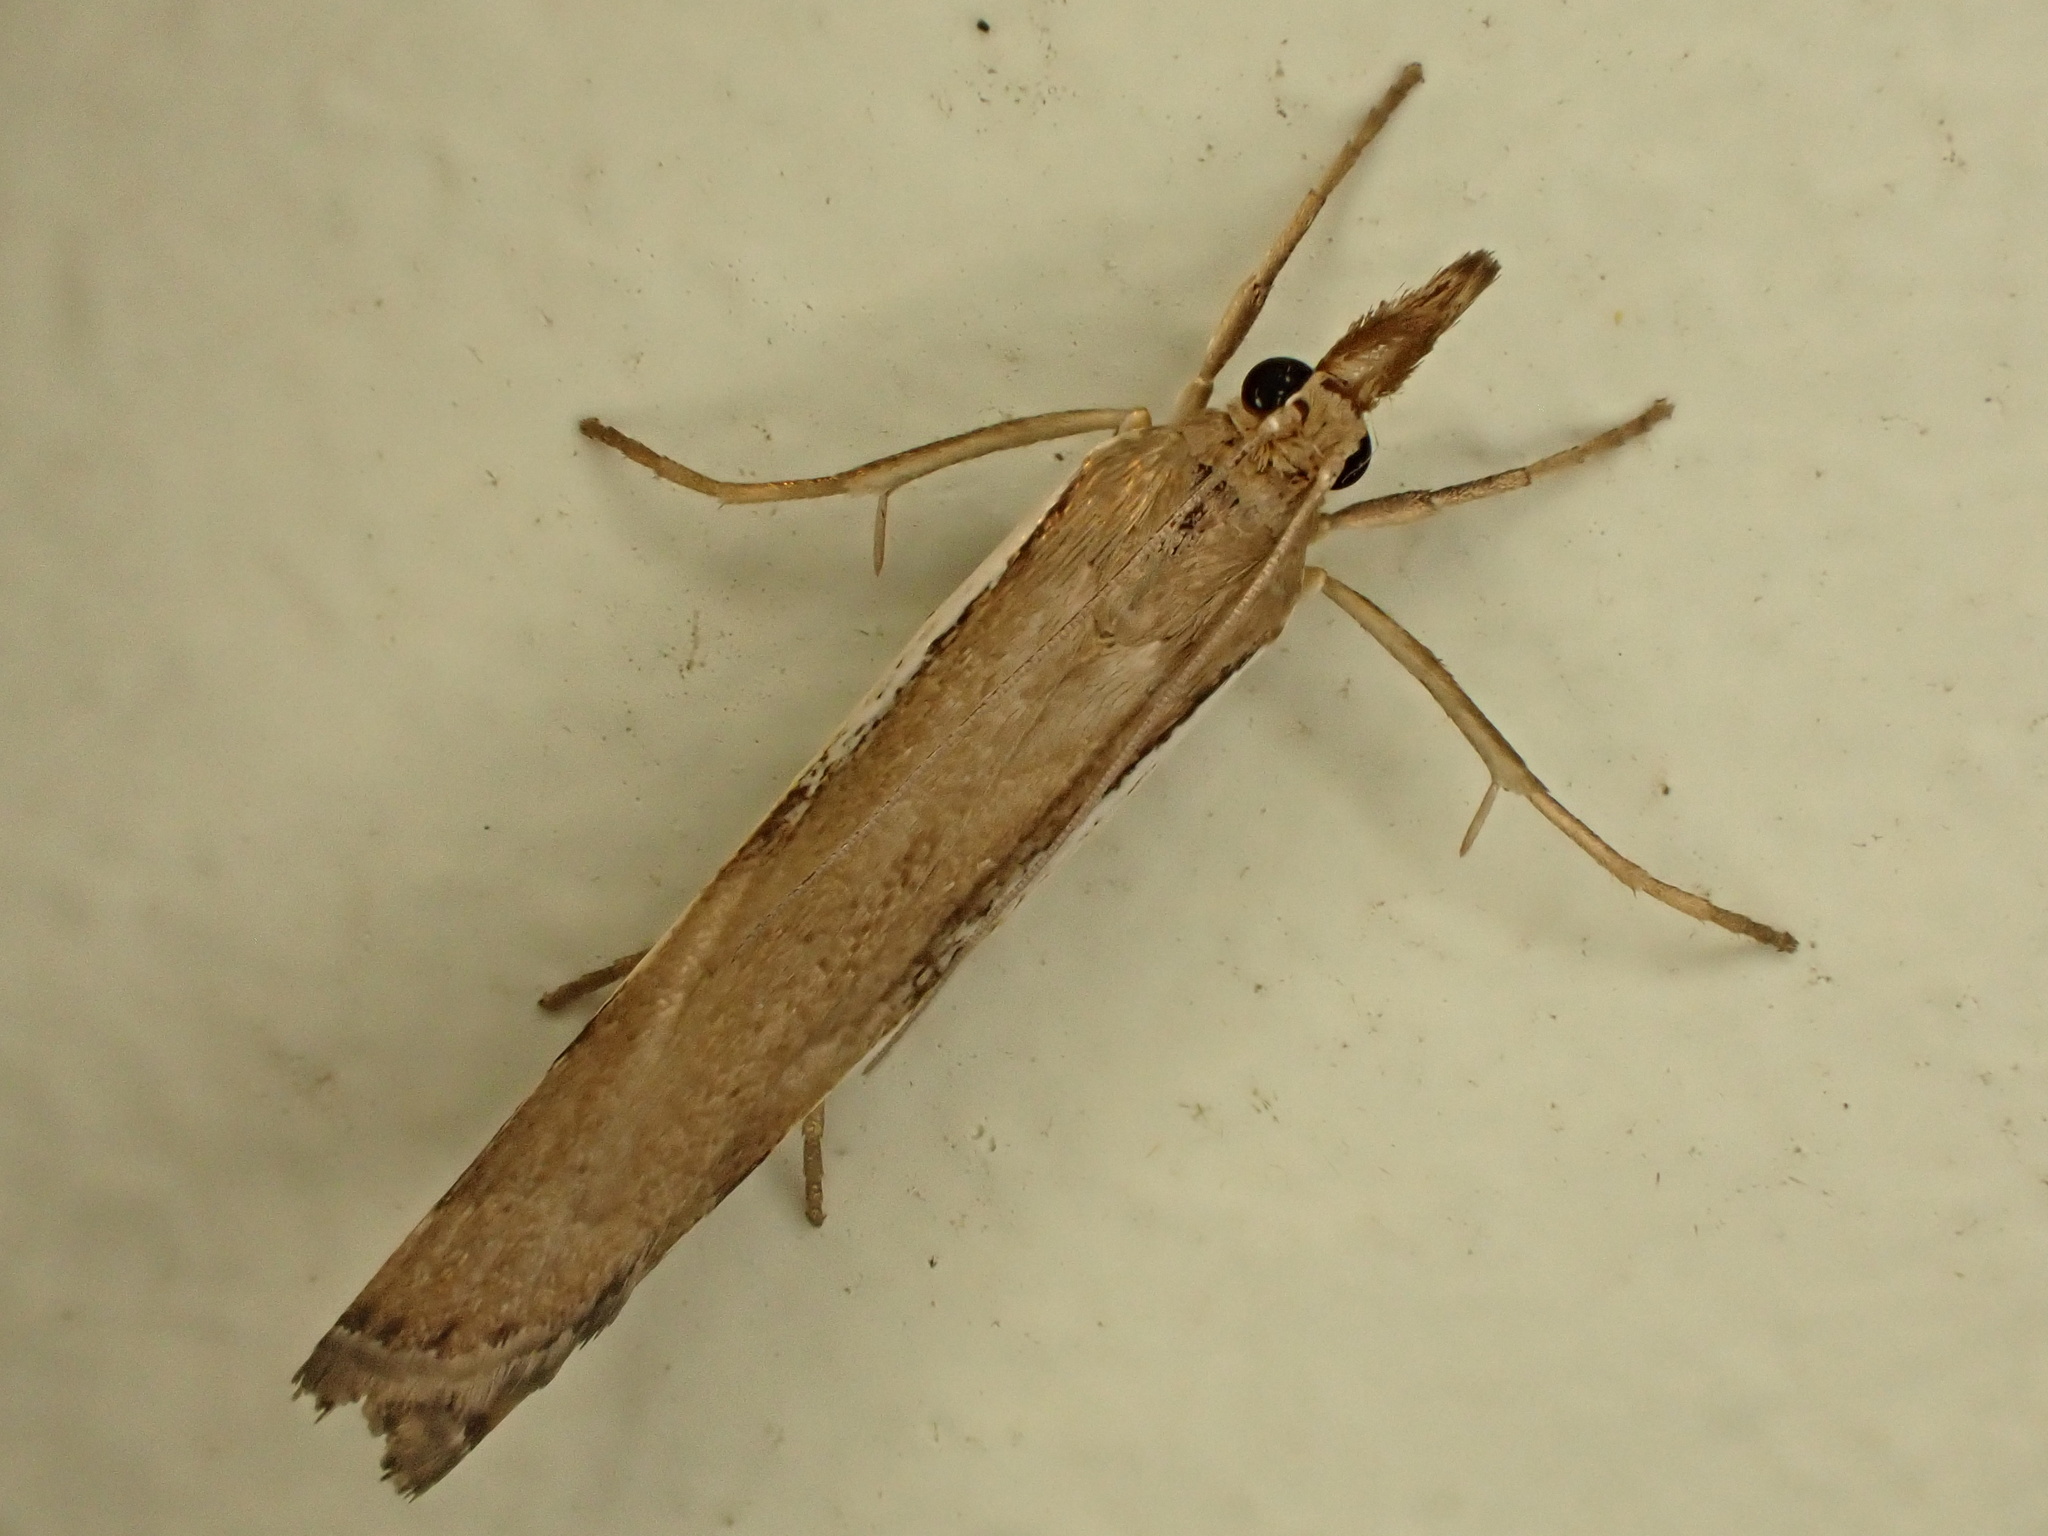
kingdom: Animalia
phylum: Arthropoda
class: Insecta
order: Lepidoptera
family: Crambidae
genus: Orocrambus
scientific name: Orocrambus flexuosellus
